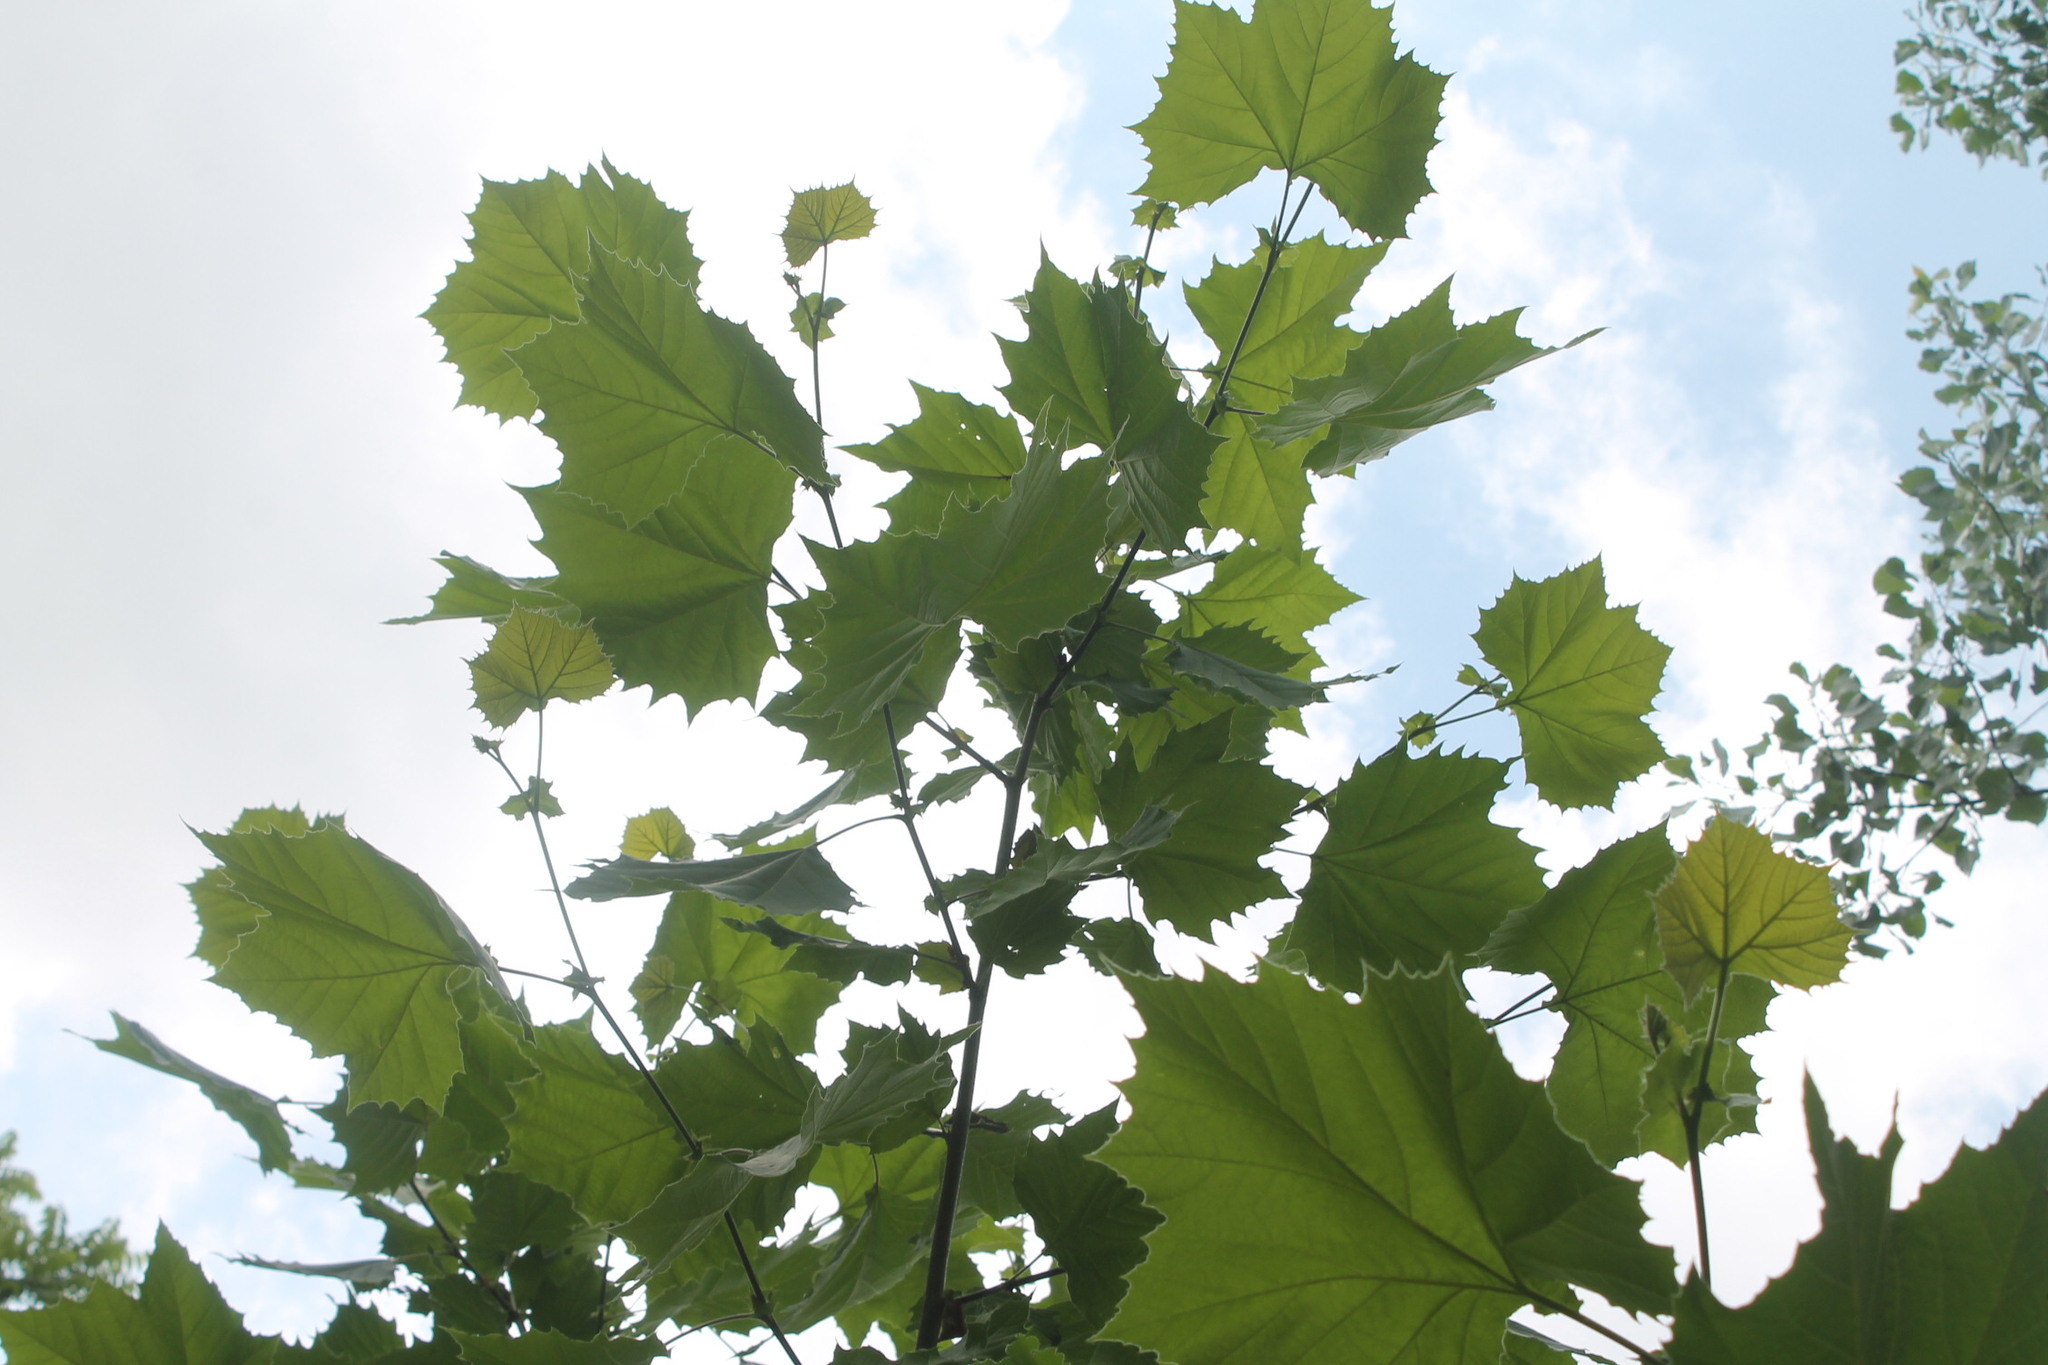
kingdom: Plantae
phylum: Tracheophyta
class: Magnoliopsida
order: Proteales
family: Platanaceae
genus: Platanus
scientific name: Platanus occidentalis
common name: American sycamore
